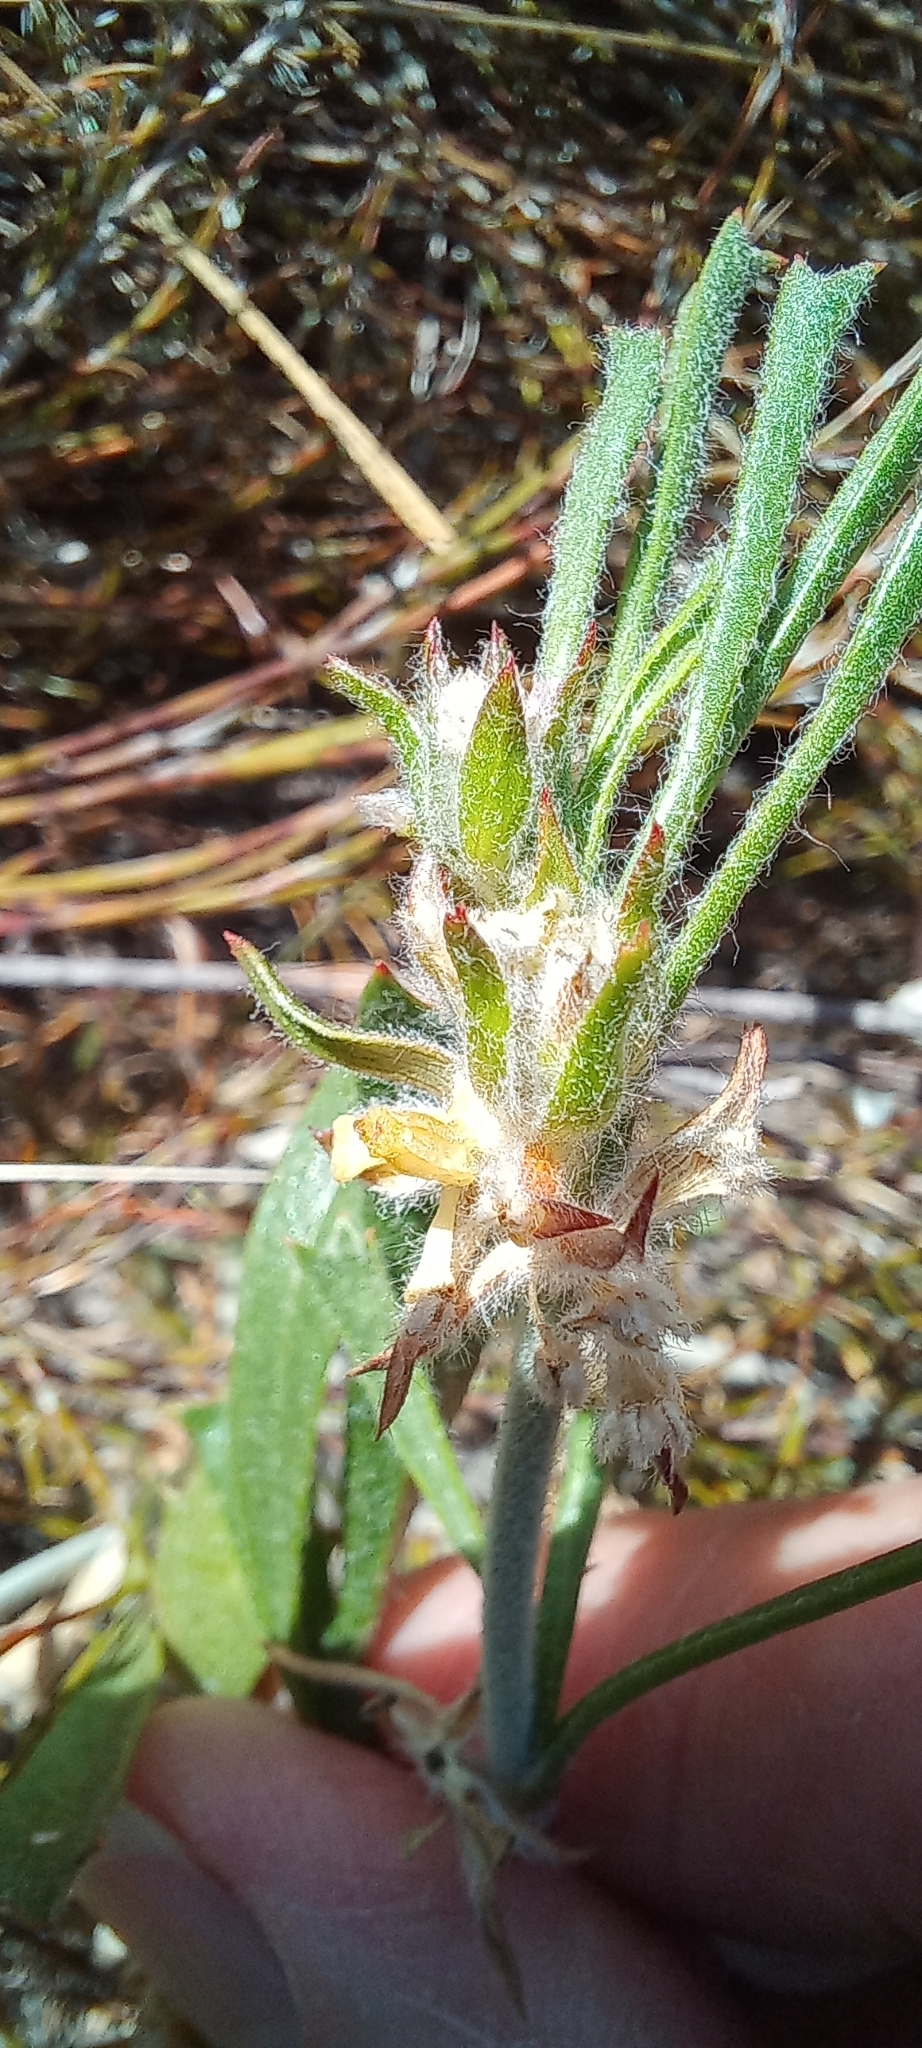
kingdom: Plantae
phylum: Tracheophyta
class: Magnoliopsida
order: Apiales
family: Apiaceae
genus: Centella
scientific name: Centella tridentata
